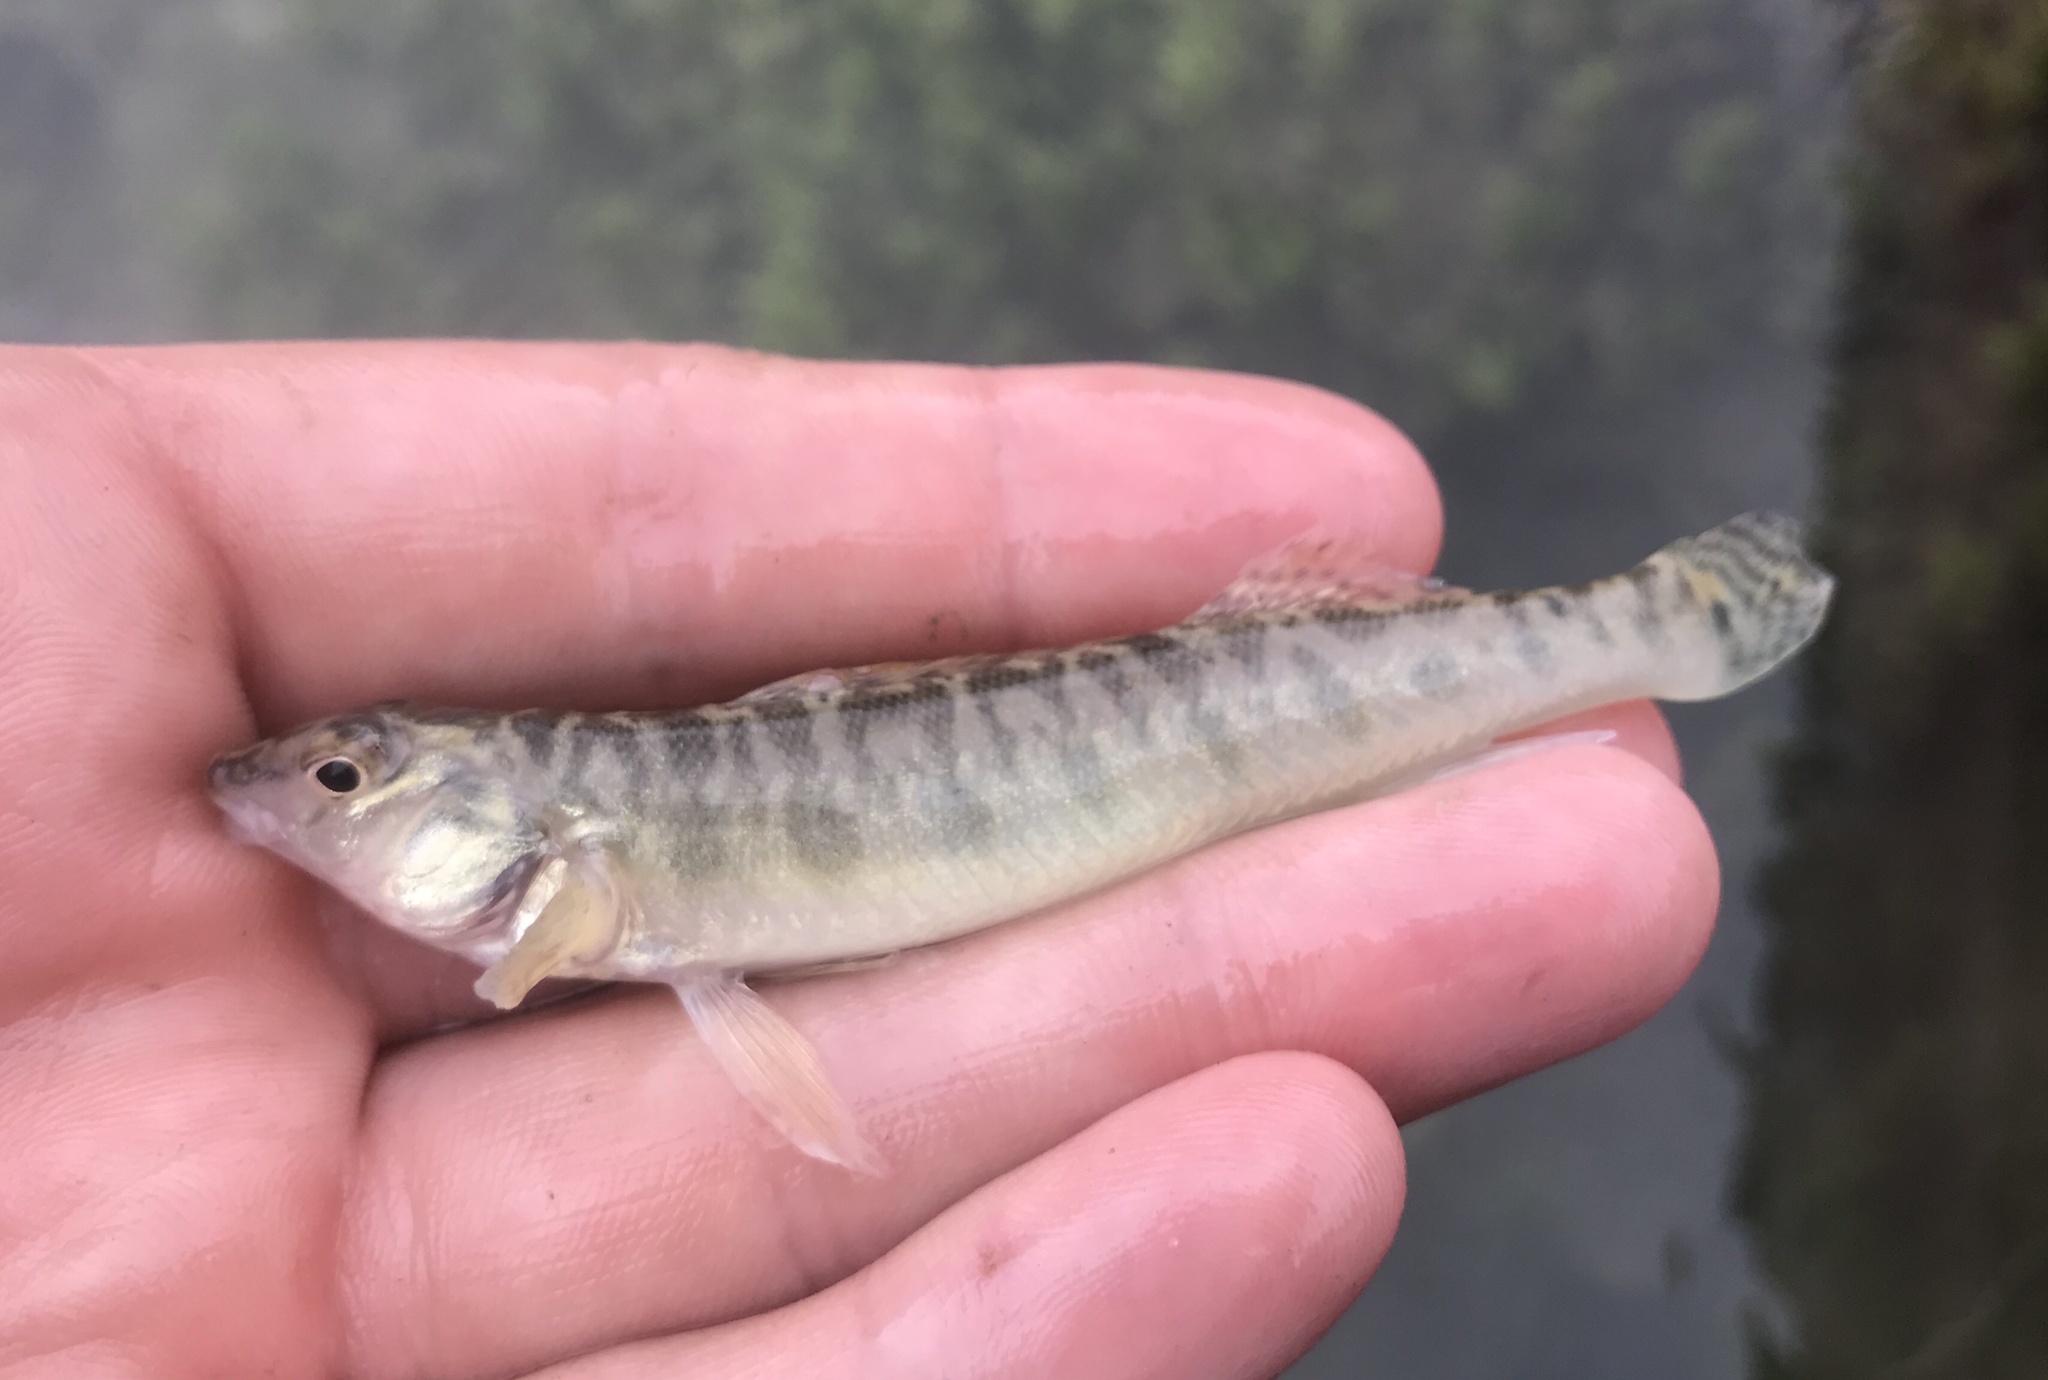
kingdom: Animalia
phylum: Chordata
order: Perciformes
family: Percidae
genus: Percina
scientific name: Percina carbonaria
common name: Texas logperch
